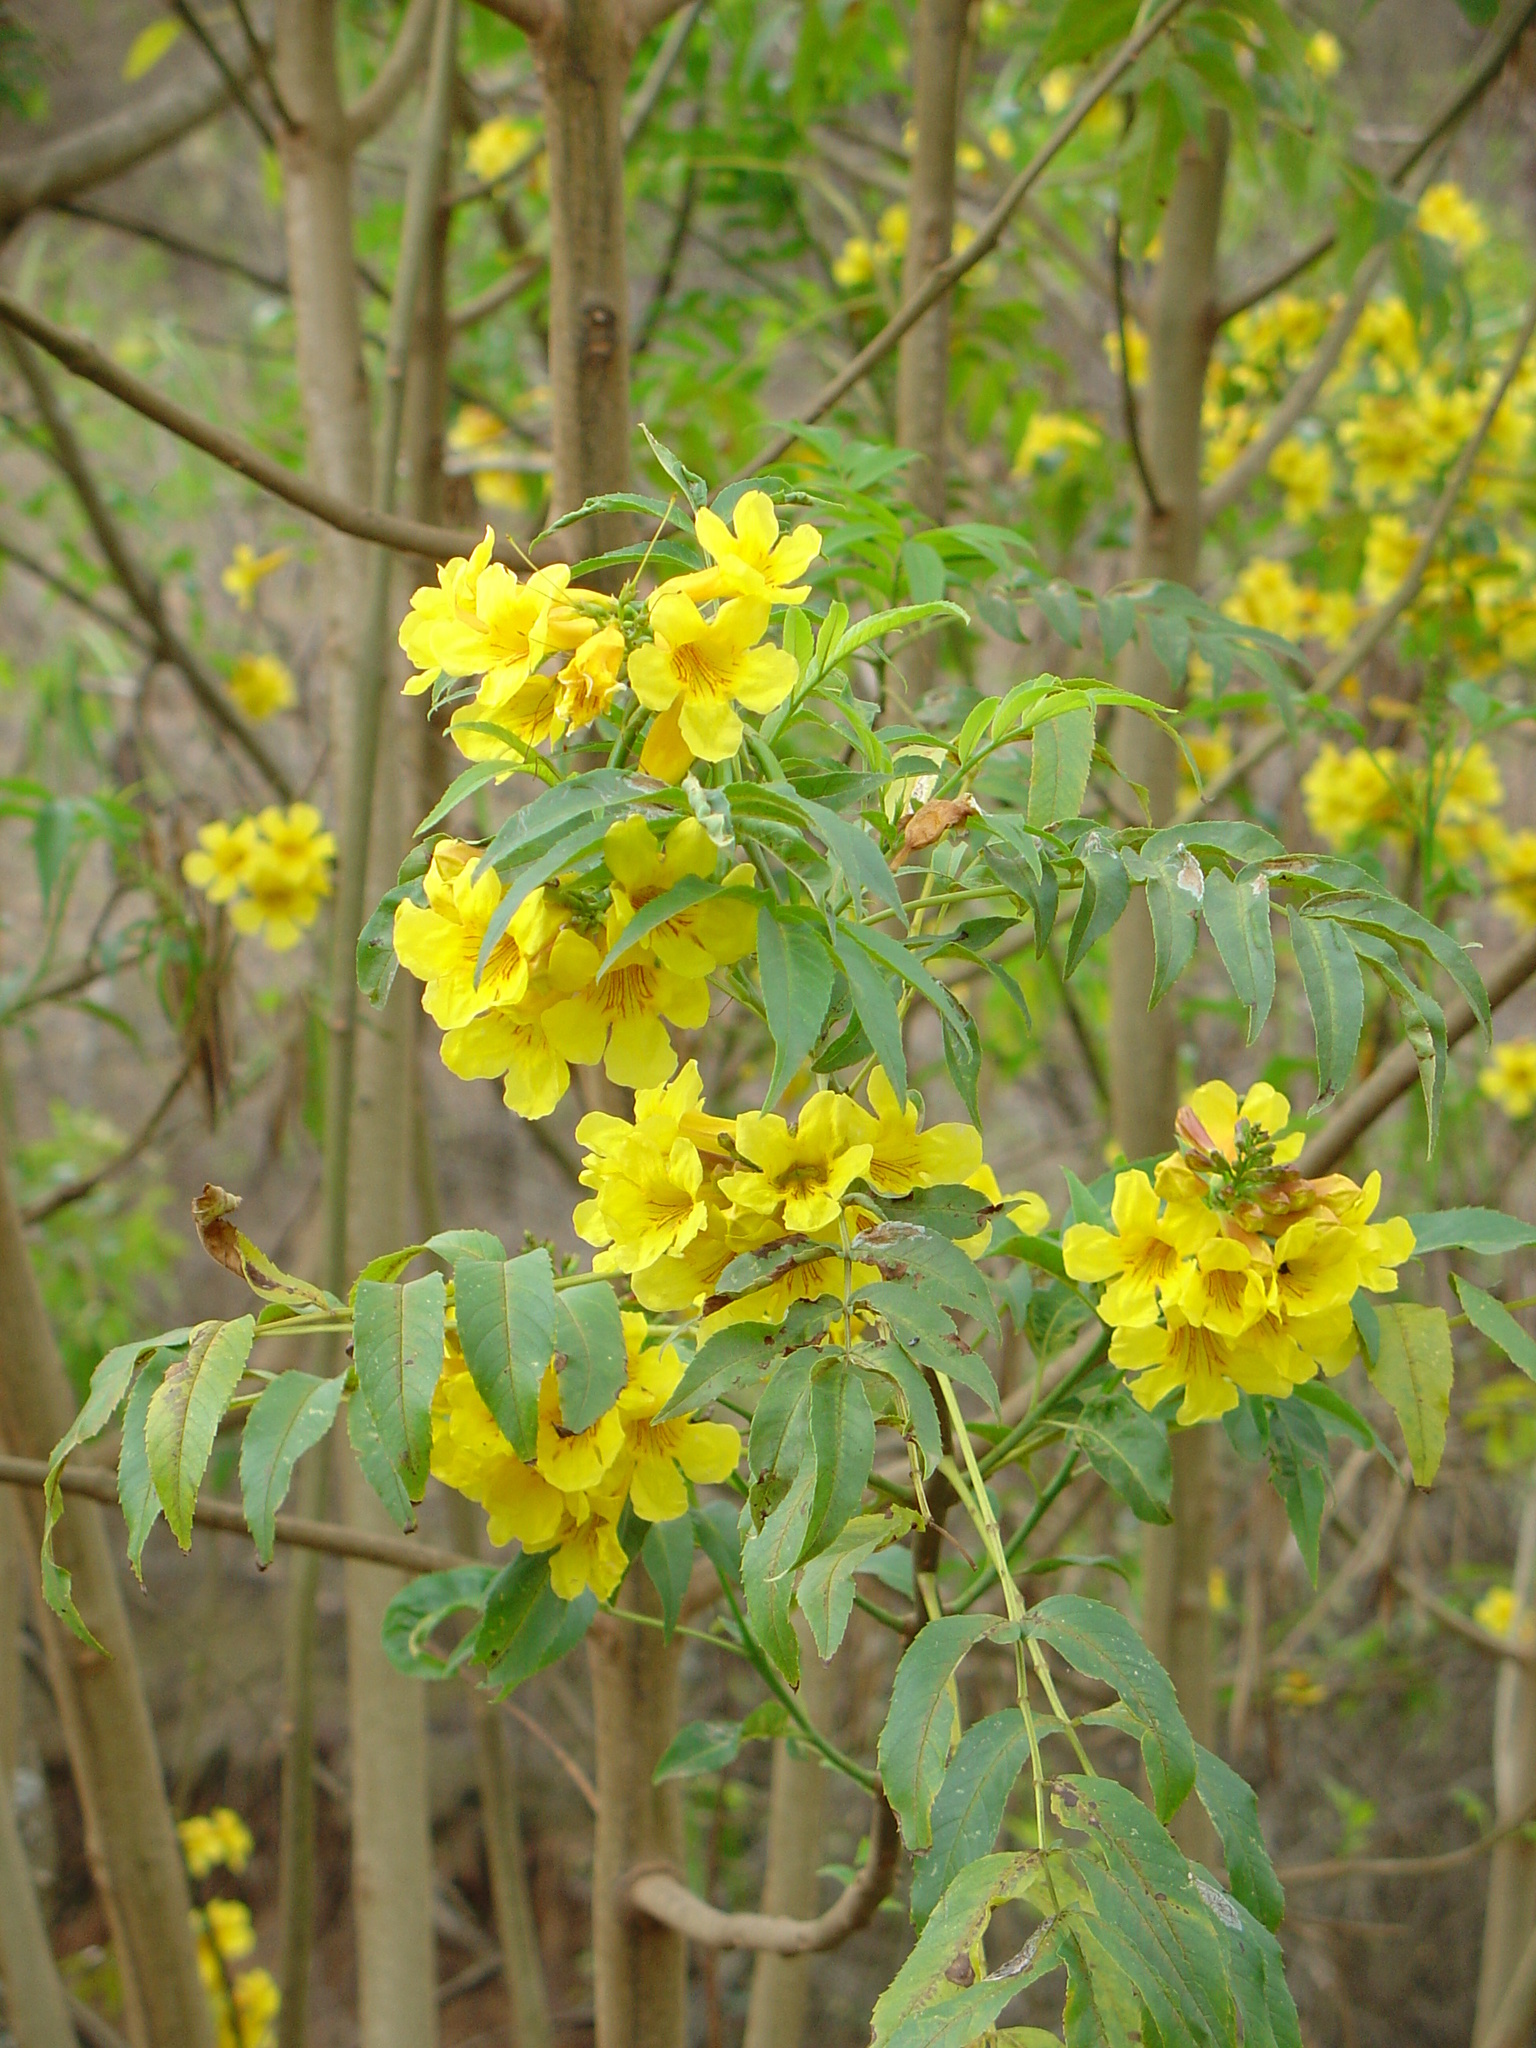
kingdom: Plantae
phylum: Tracheophyta
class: Magnoliopsida
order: Lamiales
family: Bignoniaceae
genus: Tecoma
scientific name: Tecoma stans
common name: Yellow trumpetbush
